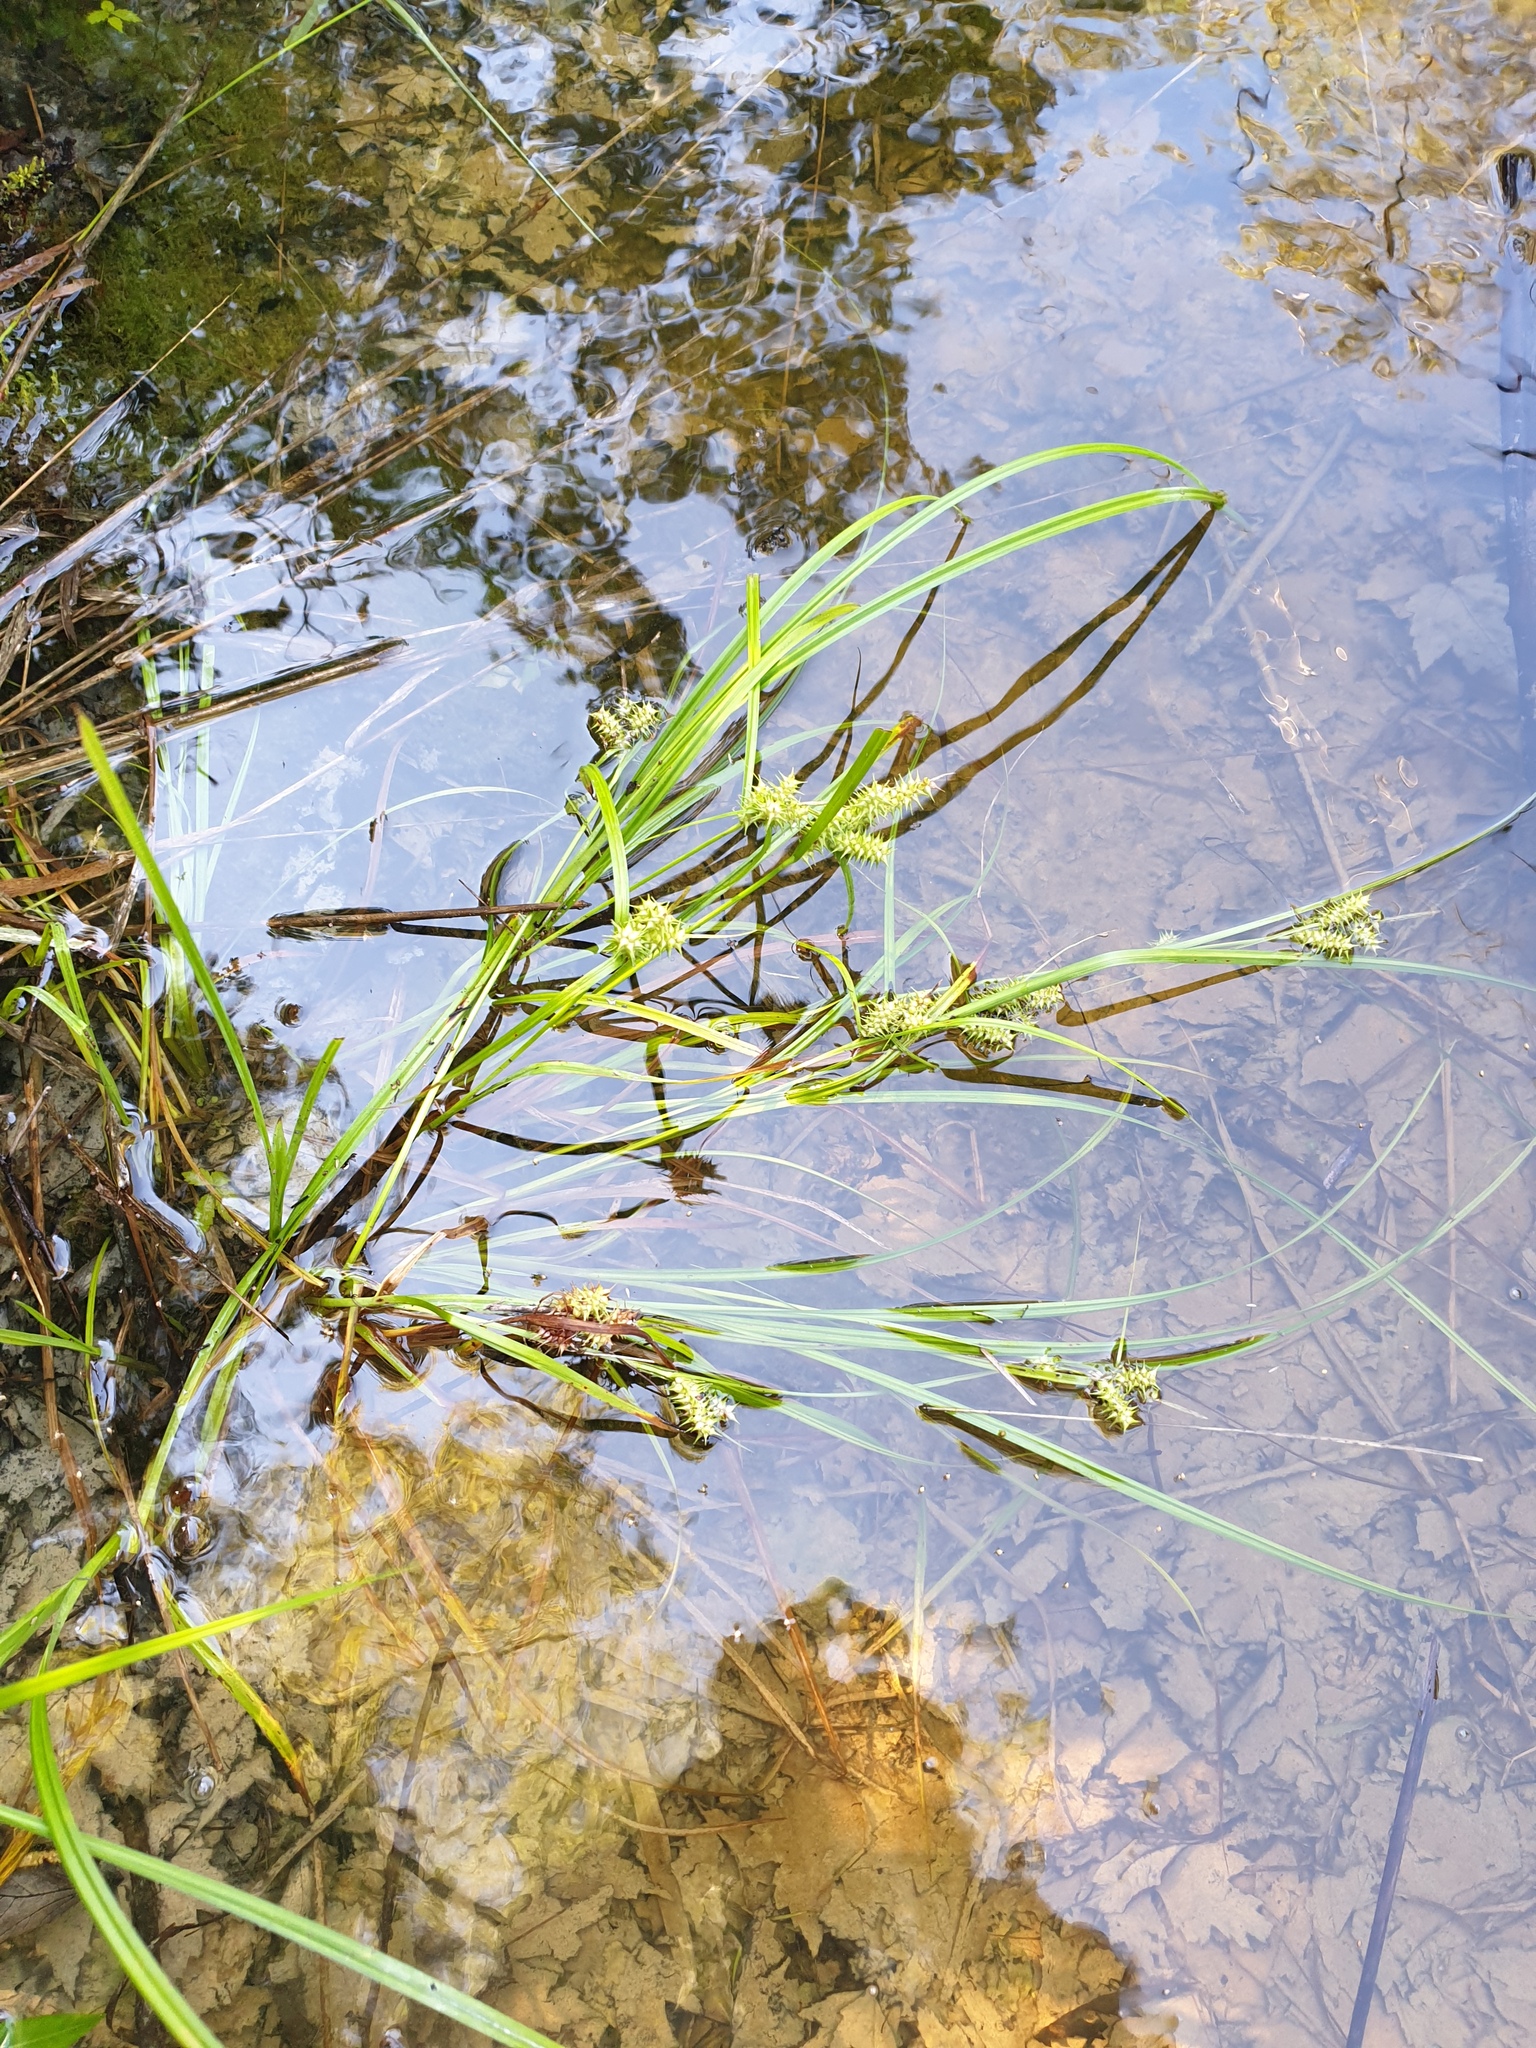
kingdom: Plantae
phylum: Tracheophyta
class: Liliopsida
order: Poales
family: Cyperaceae
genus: Carex
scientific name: Carex retrorsa
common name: Knot-sheath sedge
